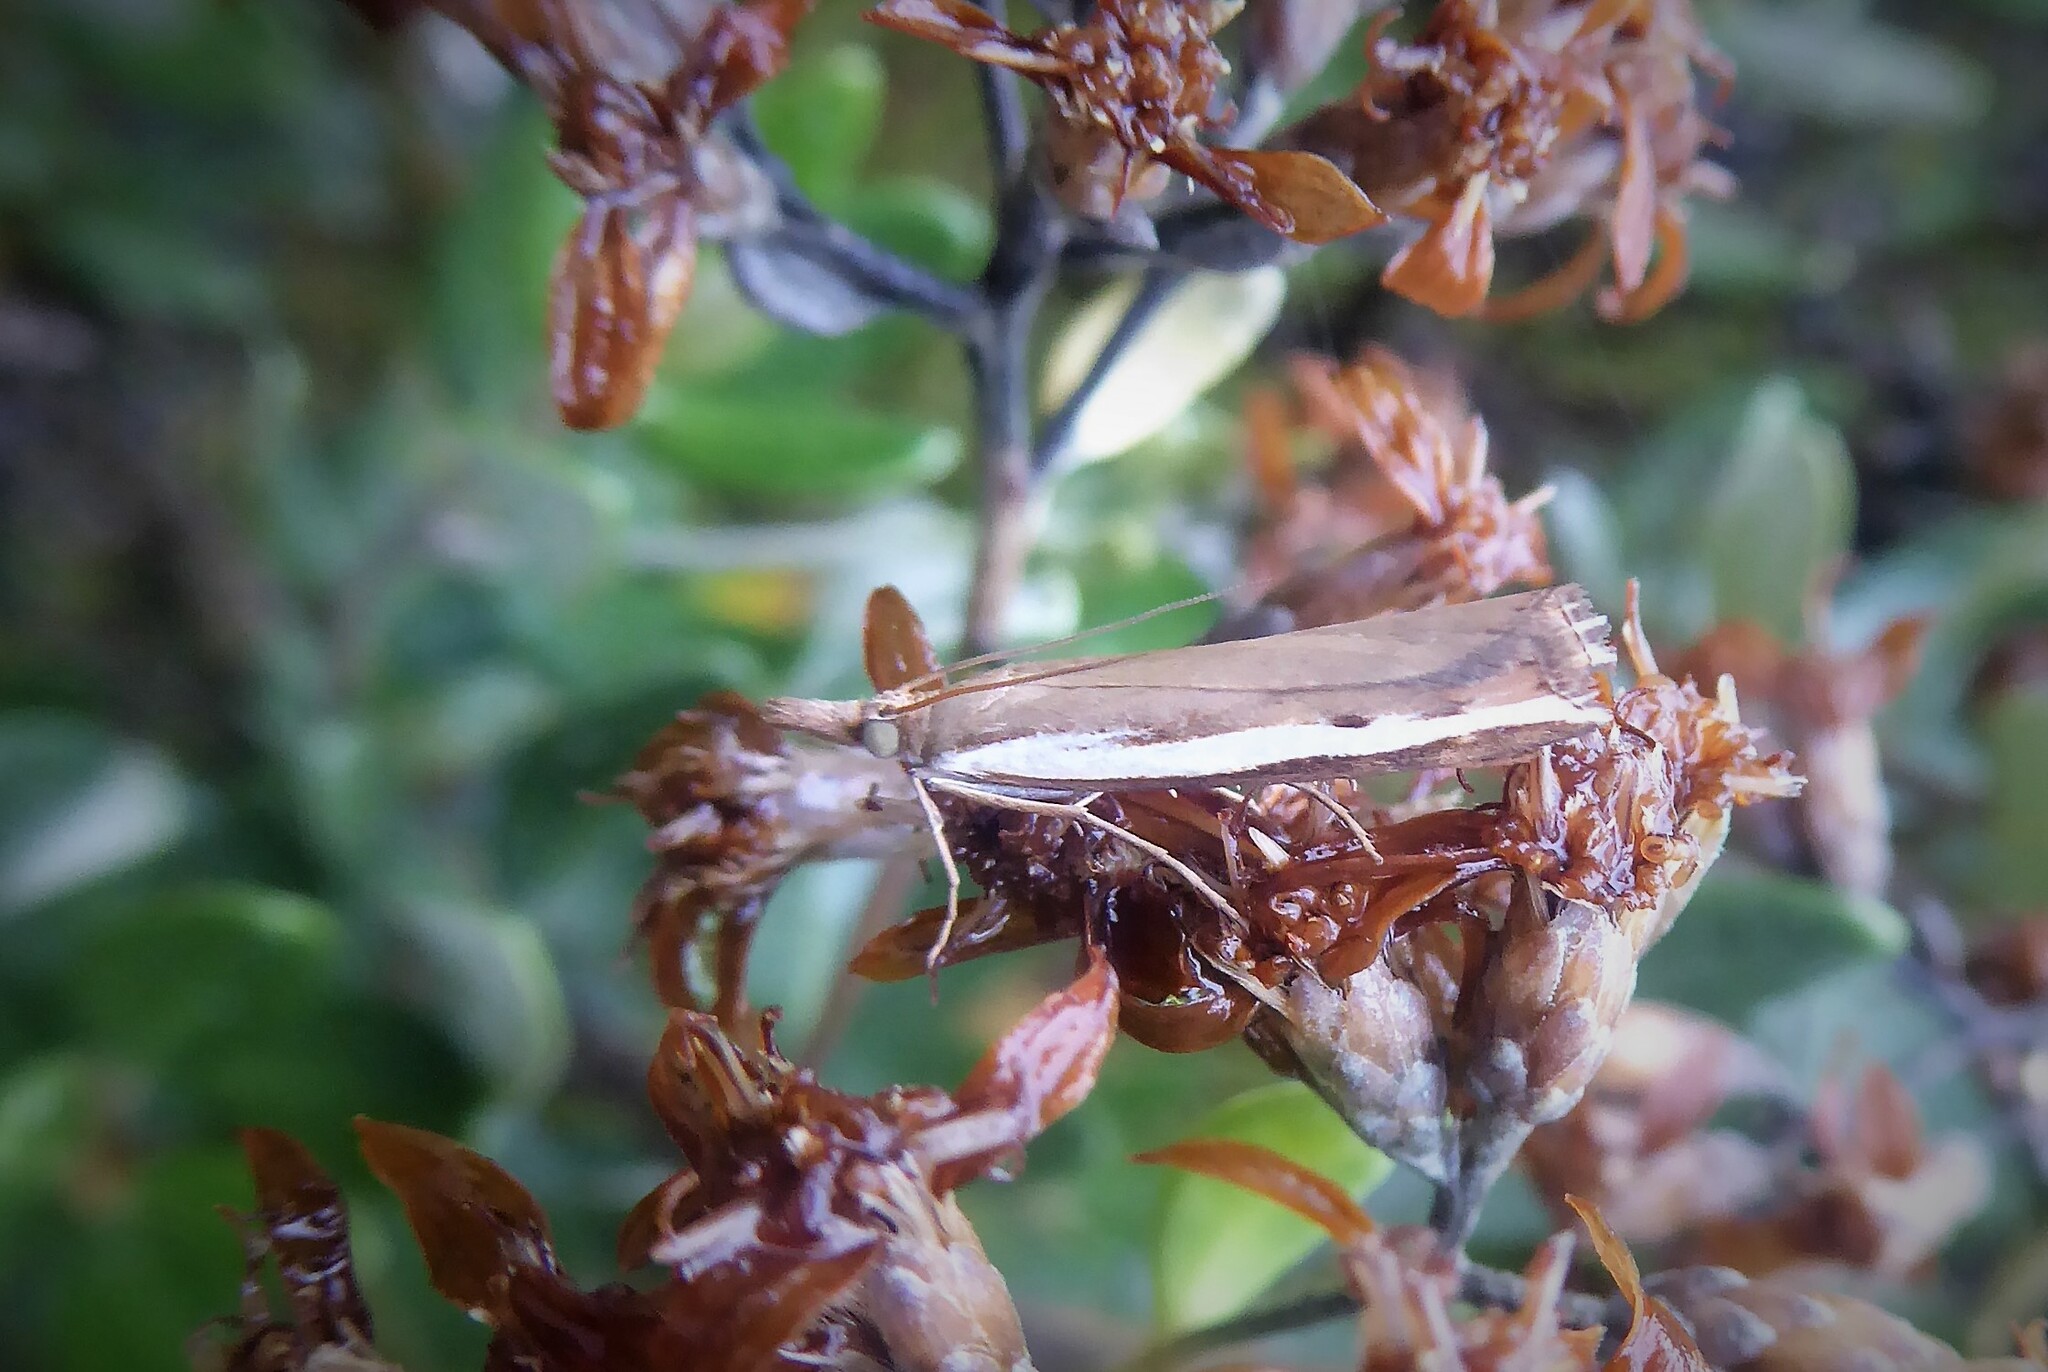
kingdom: Animalia
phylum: Arthropoda
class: Insecta
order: Lepidoptera
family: Crambidae
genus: Orocrambus
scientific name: Orocrambus flexuosellus
